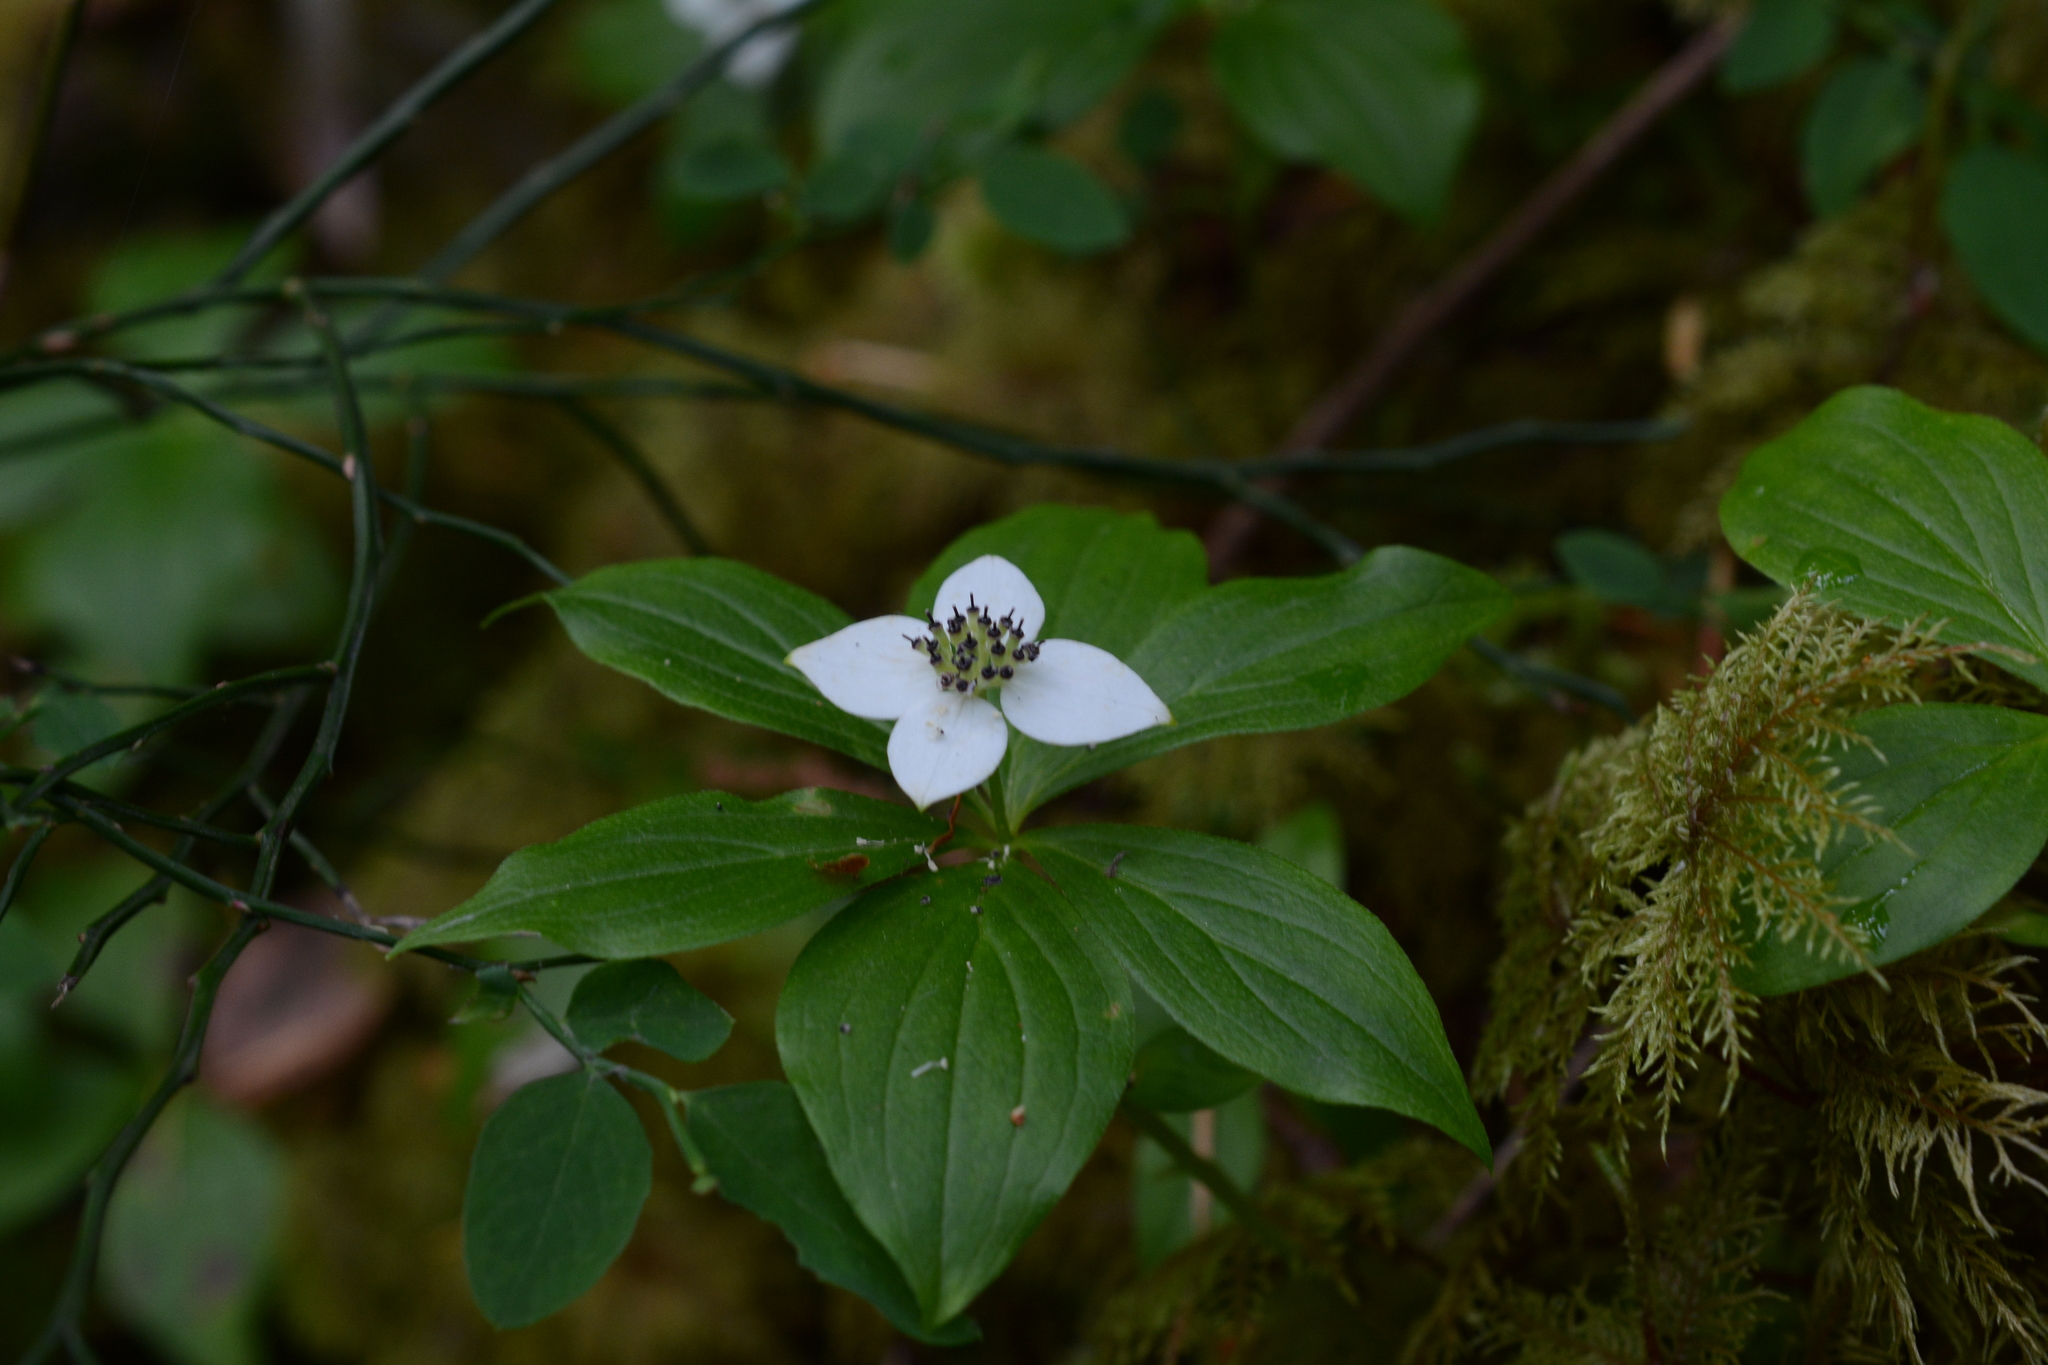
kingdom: Plantae
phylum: Tracheophyta
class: Magnoliopsida
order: Cornales
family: Cornaceae
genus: Cornus
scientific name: Cornus unalaschkensis
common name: Alaska bunchberry
